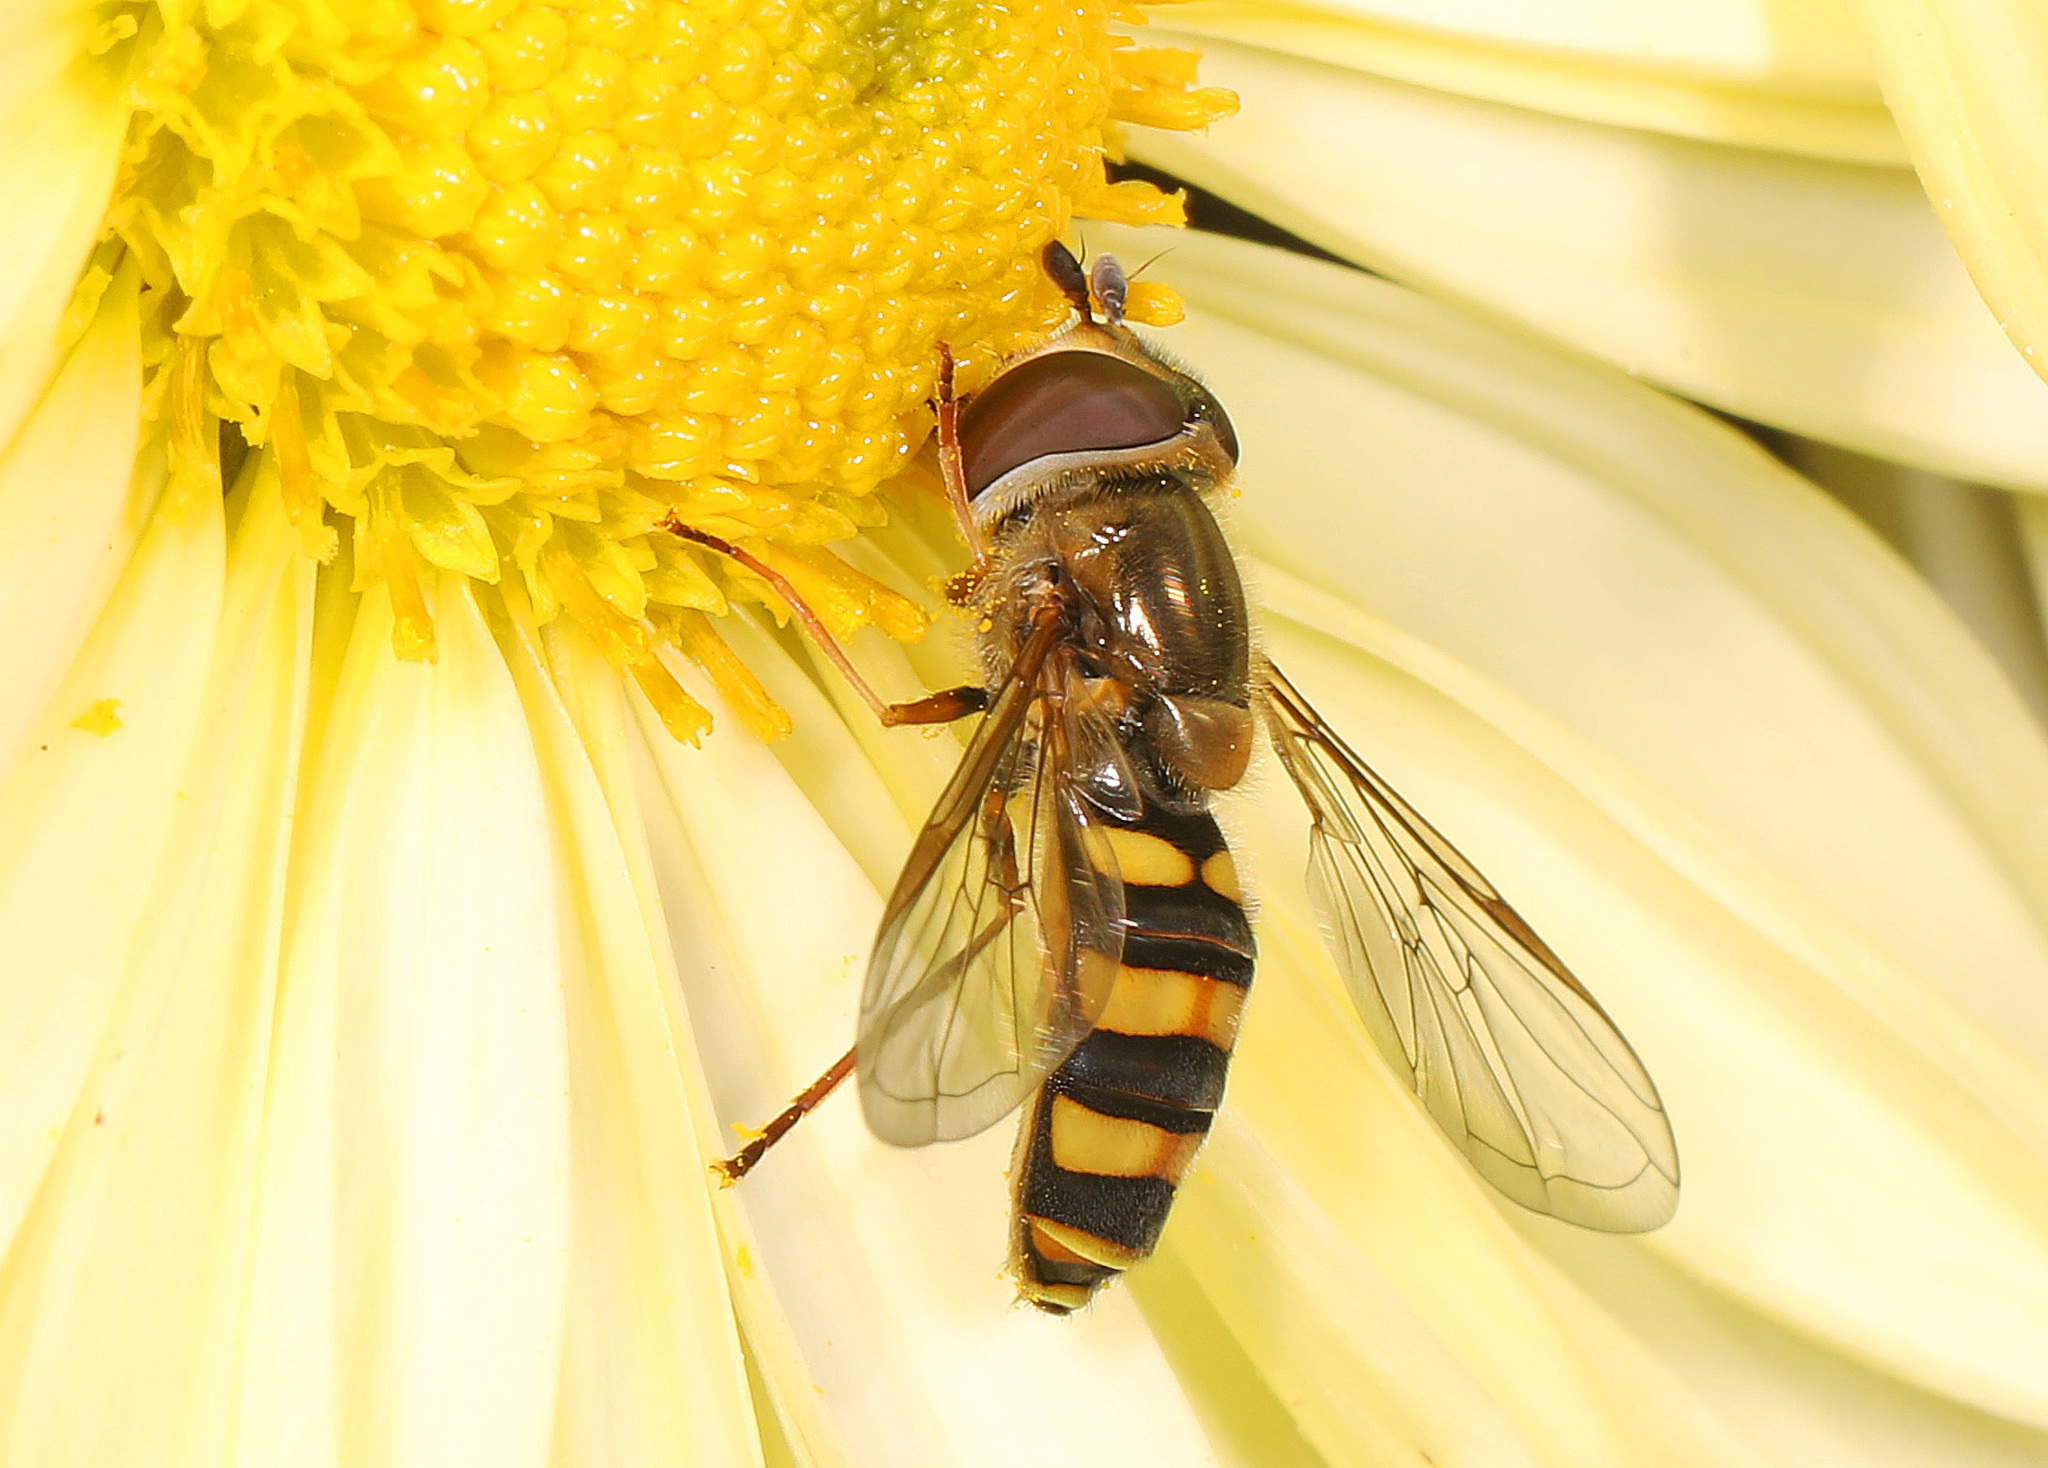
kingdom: Animalia
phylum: Arthropoda
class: Insecta
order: Diptera
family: Syrphidae
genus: Eupeodes
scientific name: Eupeodes
